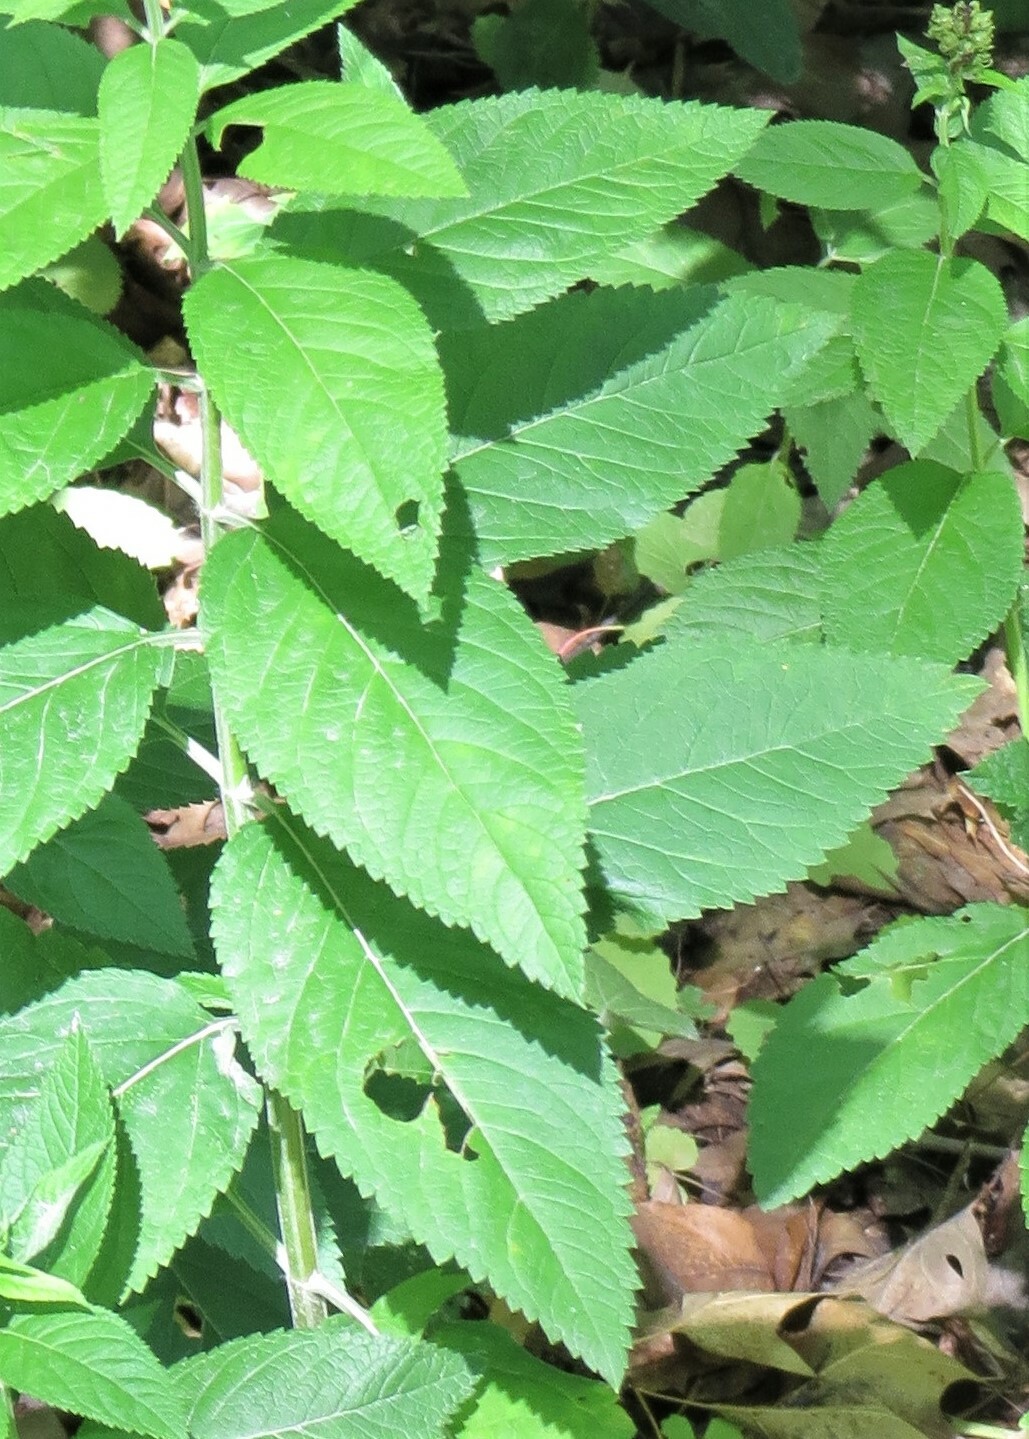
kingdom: Plantae
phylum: Tracheophyta
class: Magnoliopsida
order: Lamiales
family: Lamiaceae
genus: Teucrium
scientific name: Teucrium canadense
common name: American germander
